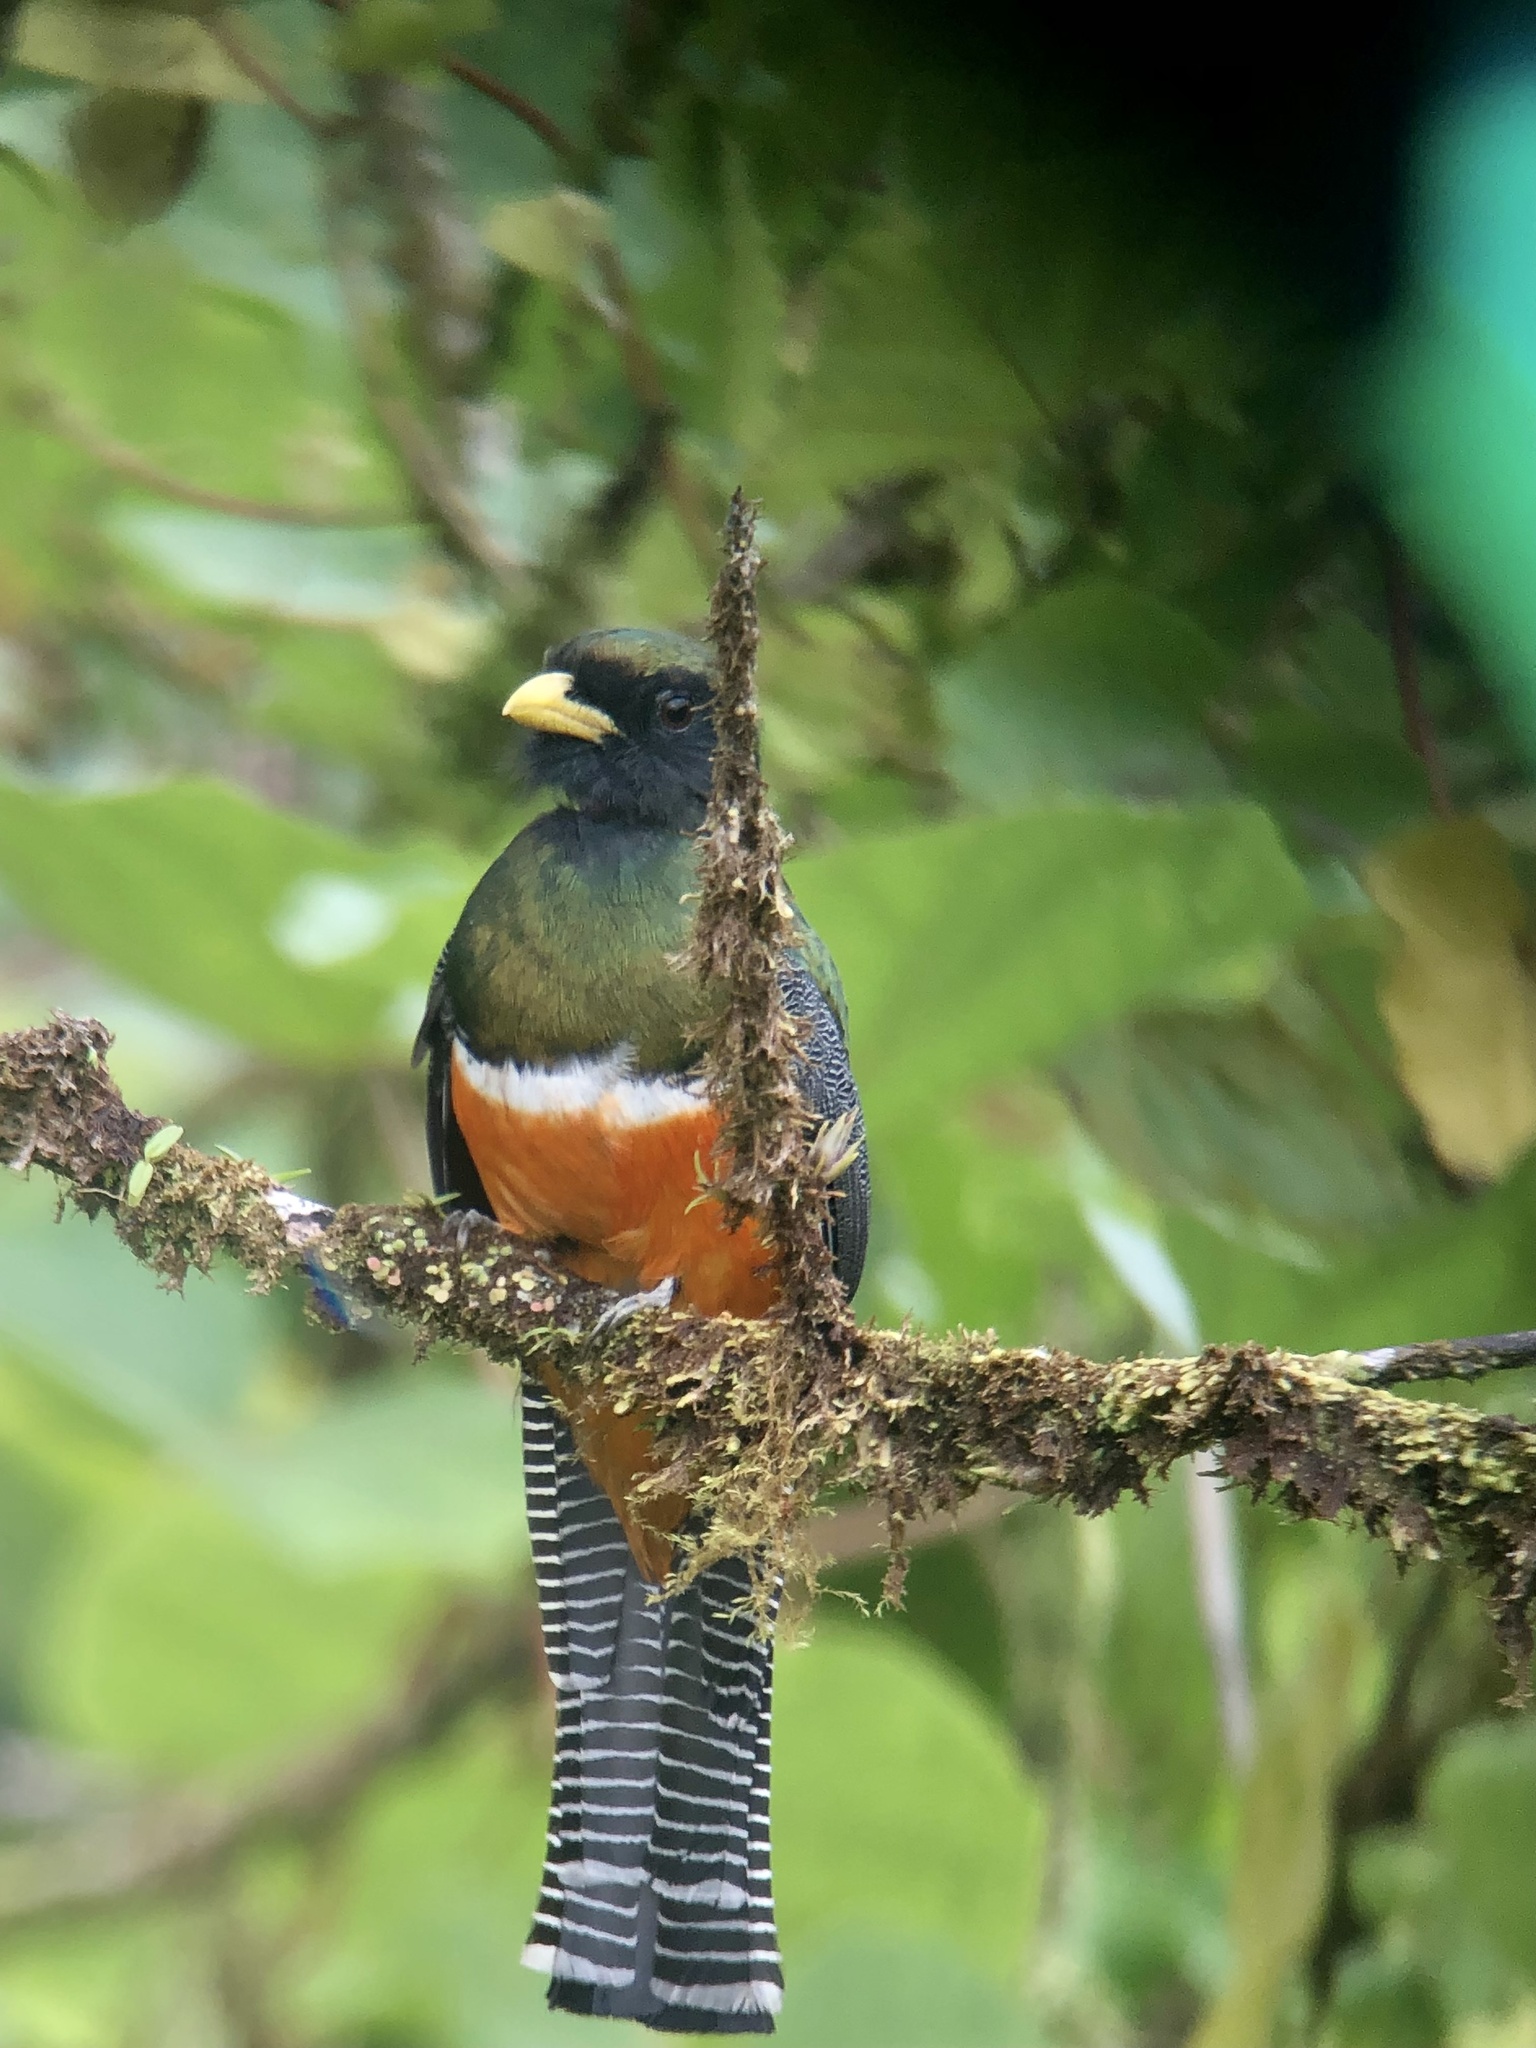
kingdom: Animalia
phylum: Chordata
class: Aves
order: Trogoniformes
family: Trogonidae
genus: Trogon
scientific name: Trogon collaris
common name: Collared trogon
